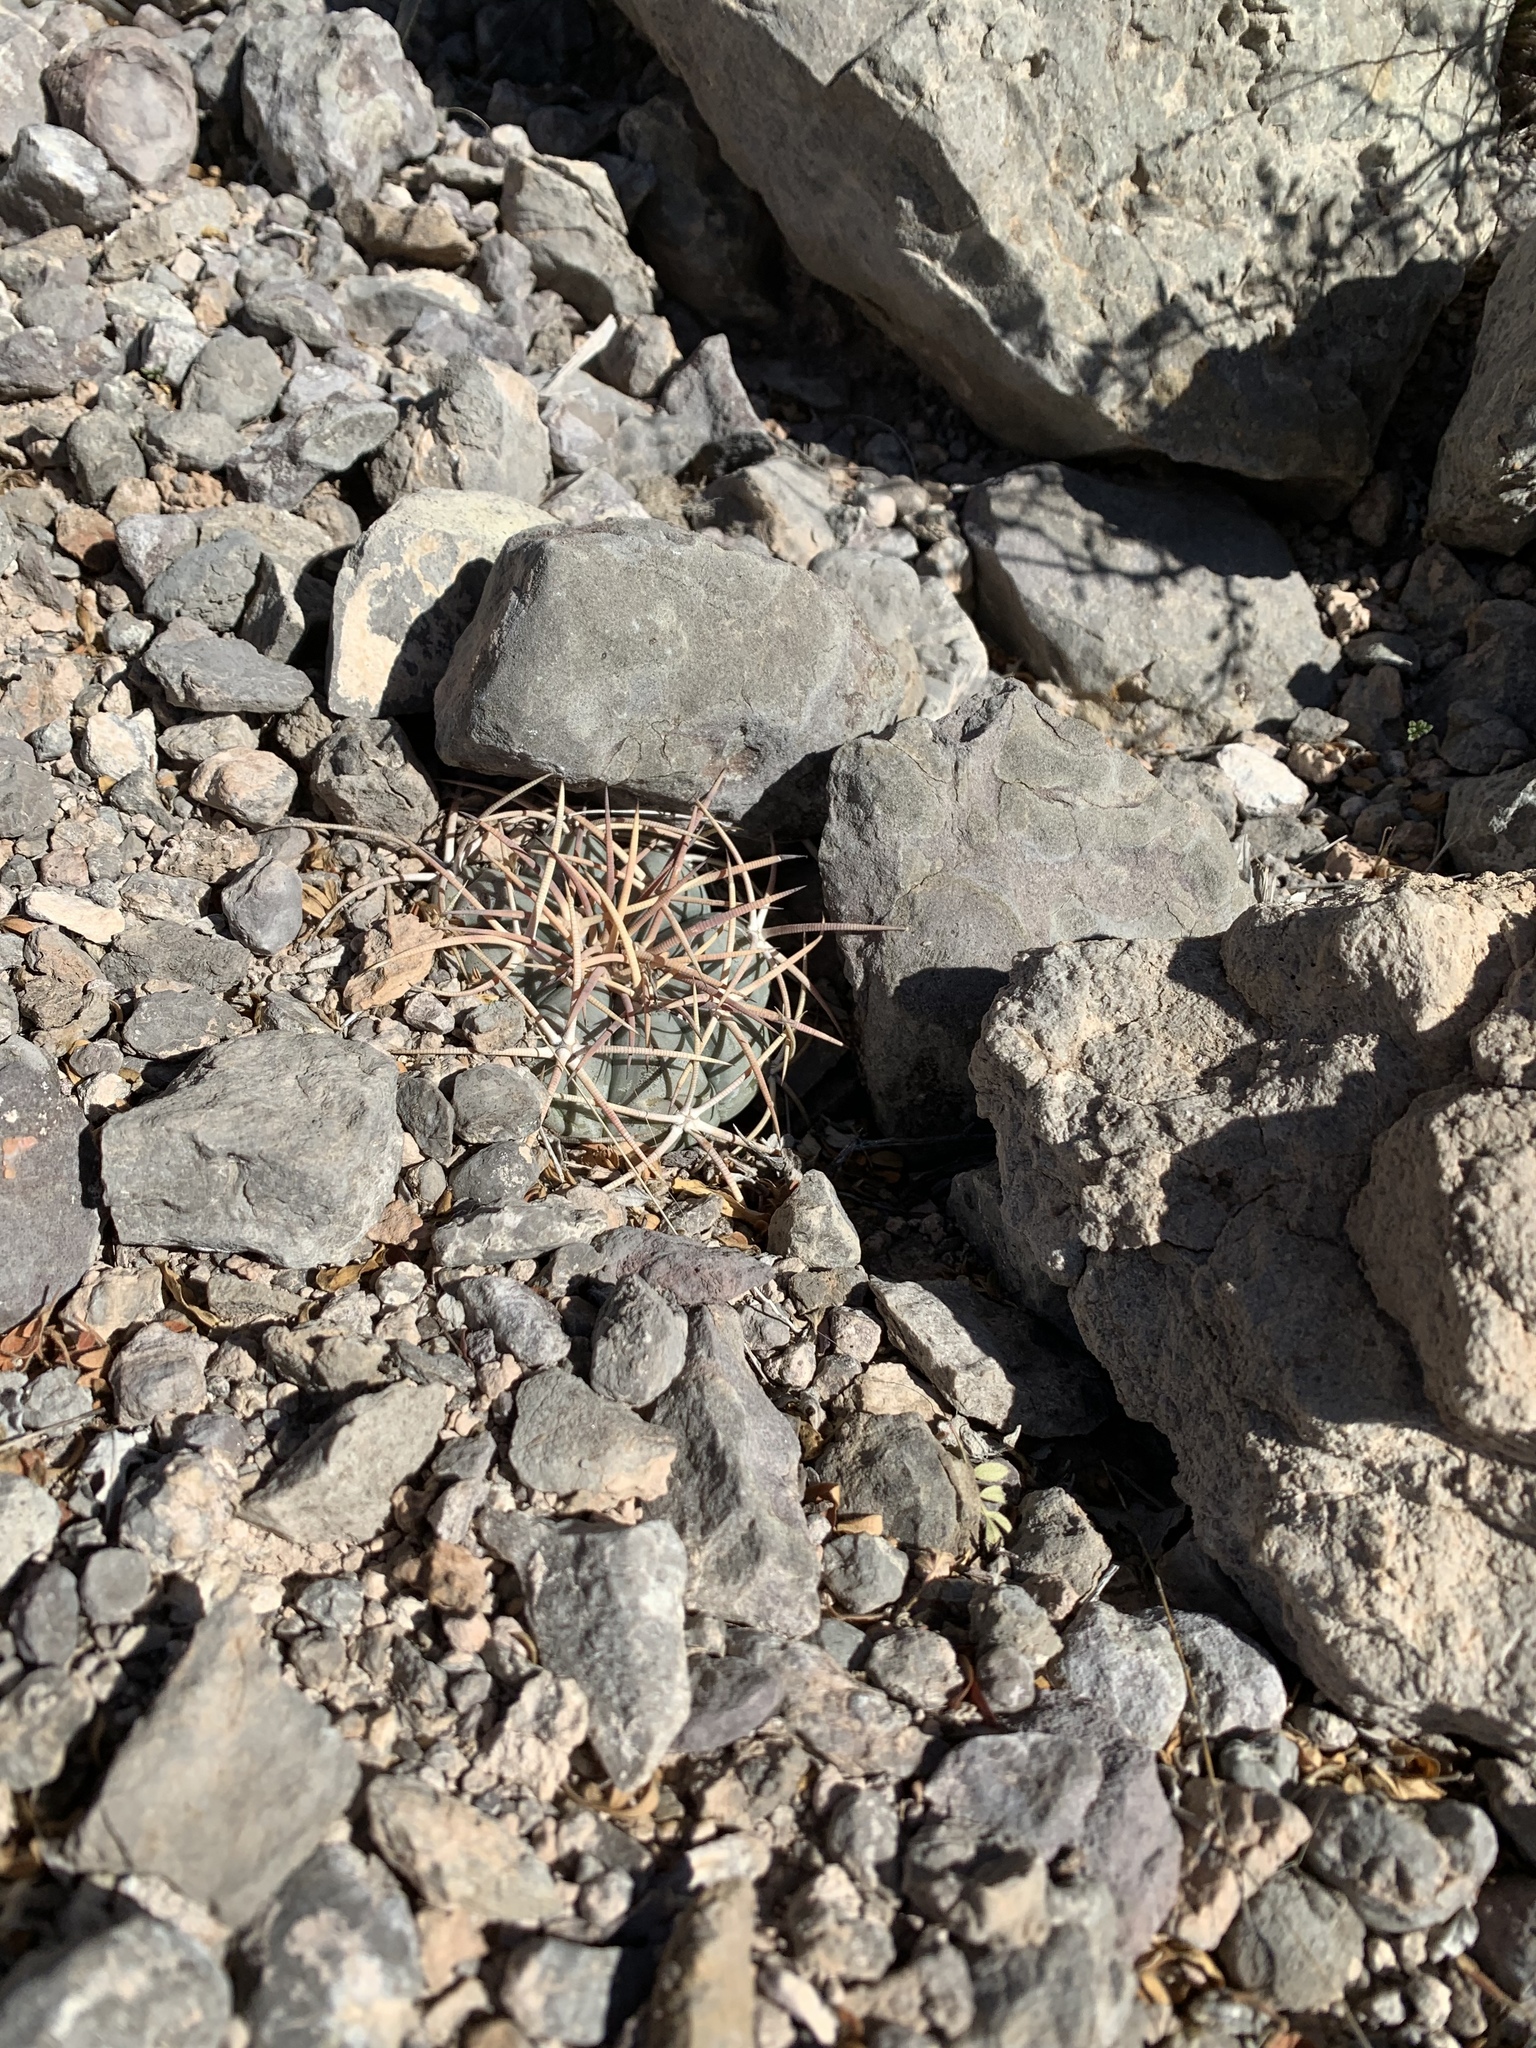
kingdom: Plantae
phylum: Tracheophyta
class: Magnoliopsida
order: Caryophyllales
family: Cactaceae
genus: Echinocactus
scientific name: Echinocactus horizonthalonius
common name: Devilshead
